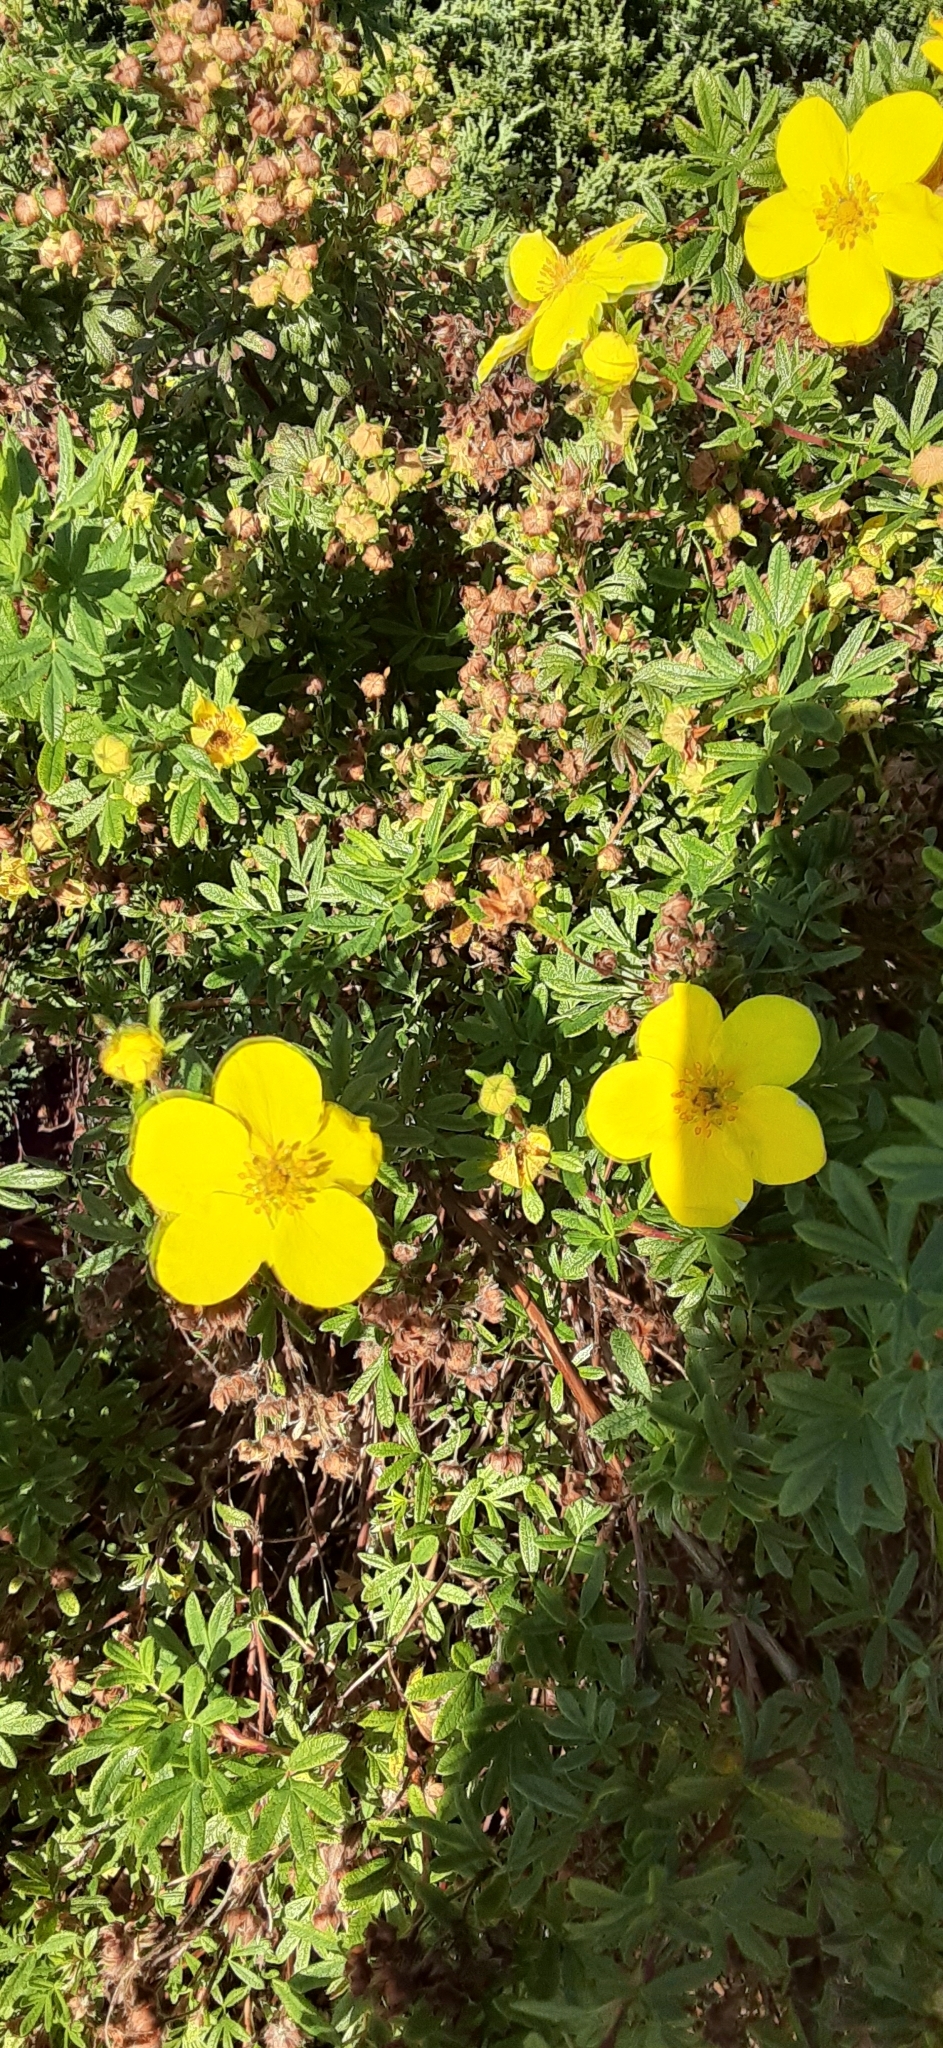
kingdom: Plantae
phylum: Tracheophyta
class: Magnoliopsida
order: Rosales
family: Rosaceae
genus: Dasiphora
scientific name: Dasiphora fruticosa
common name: Shrubby cinquefoil
